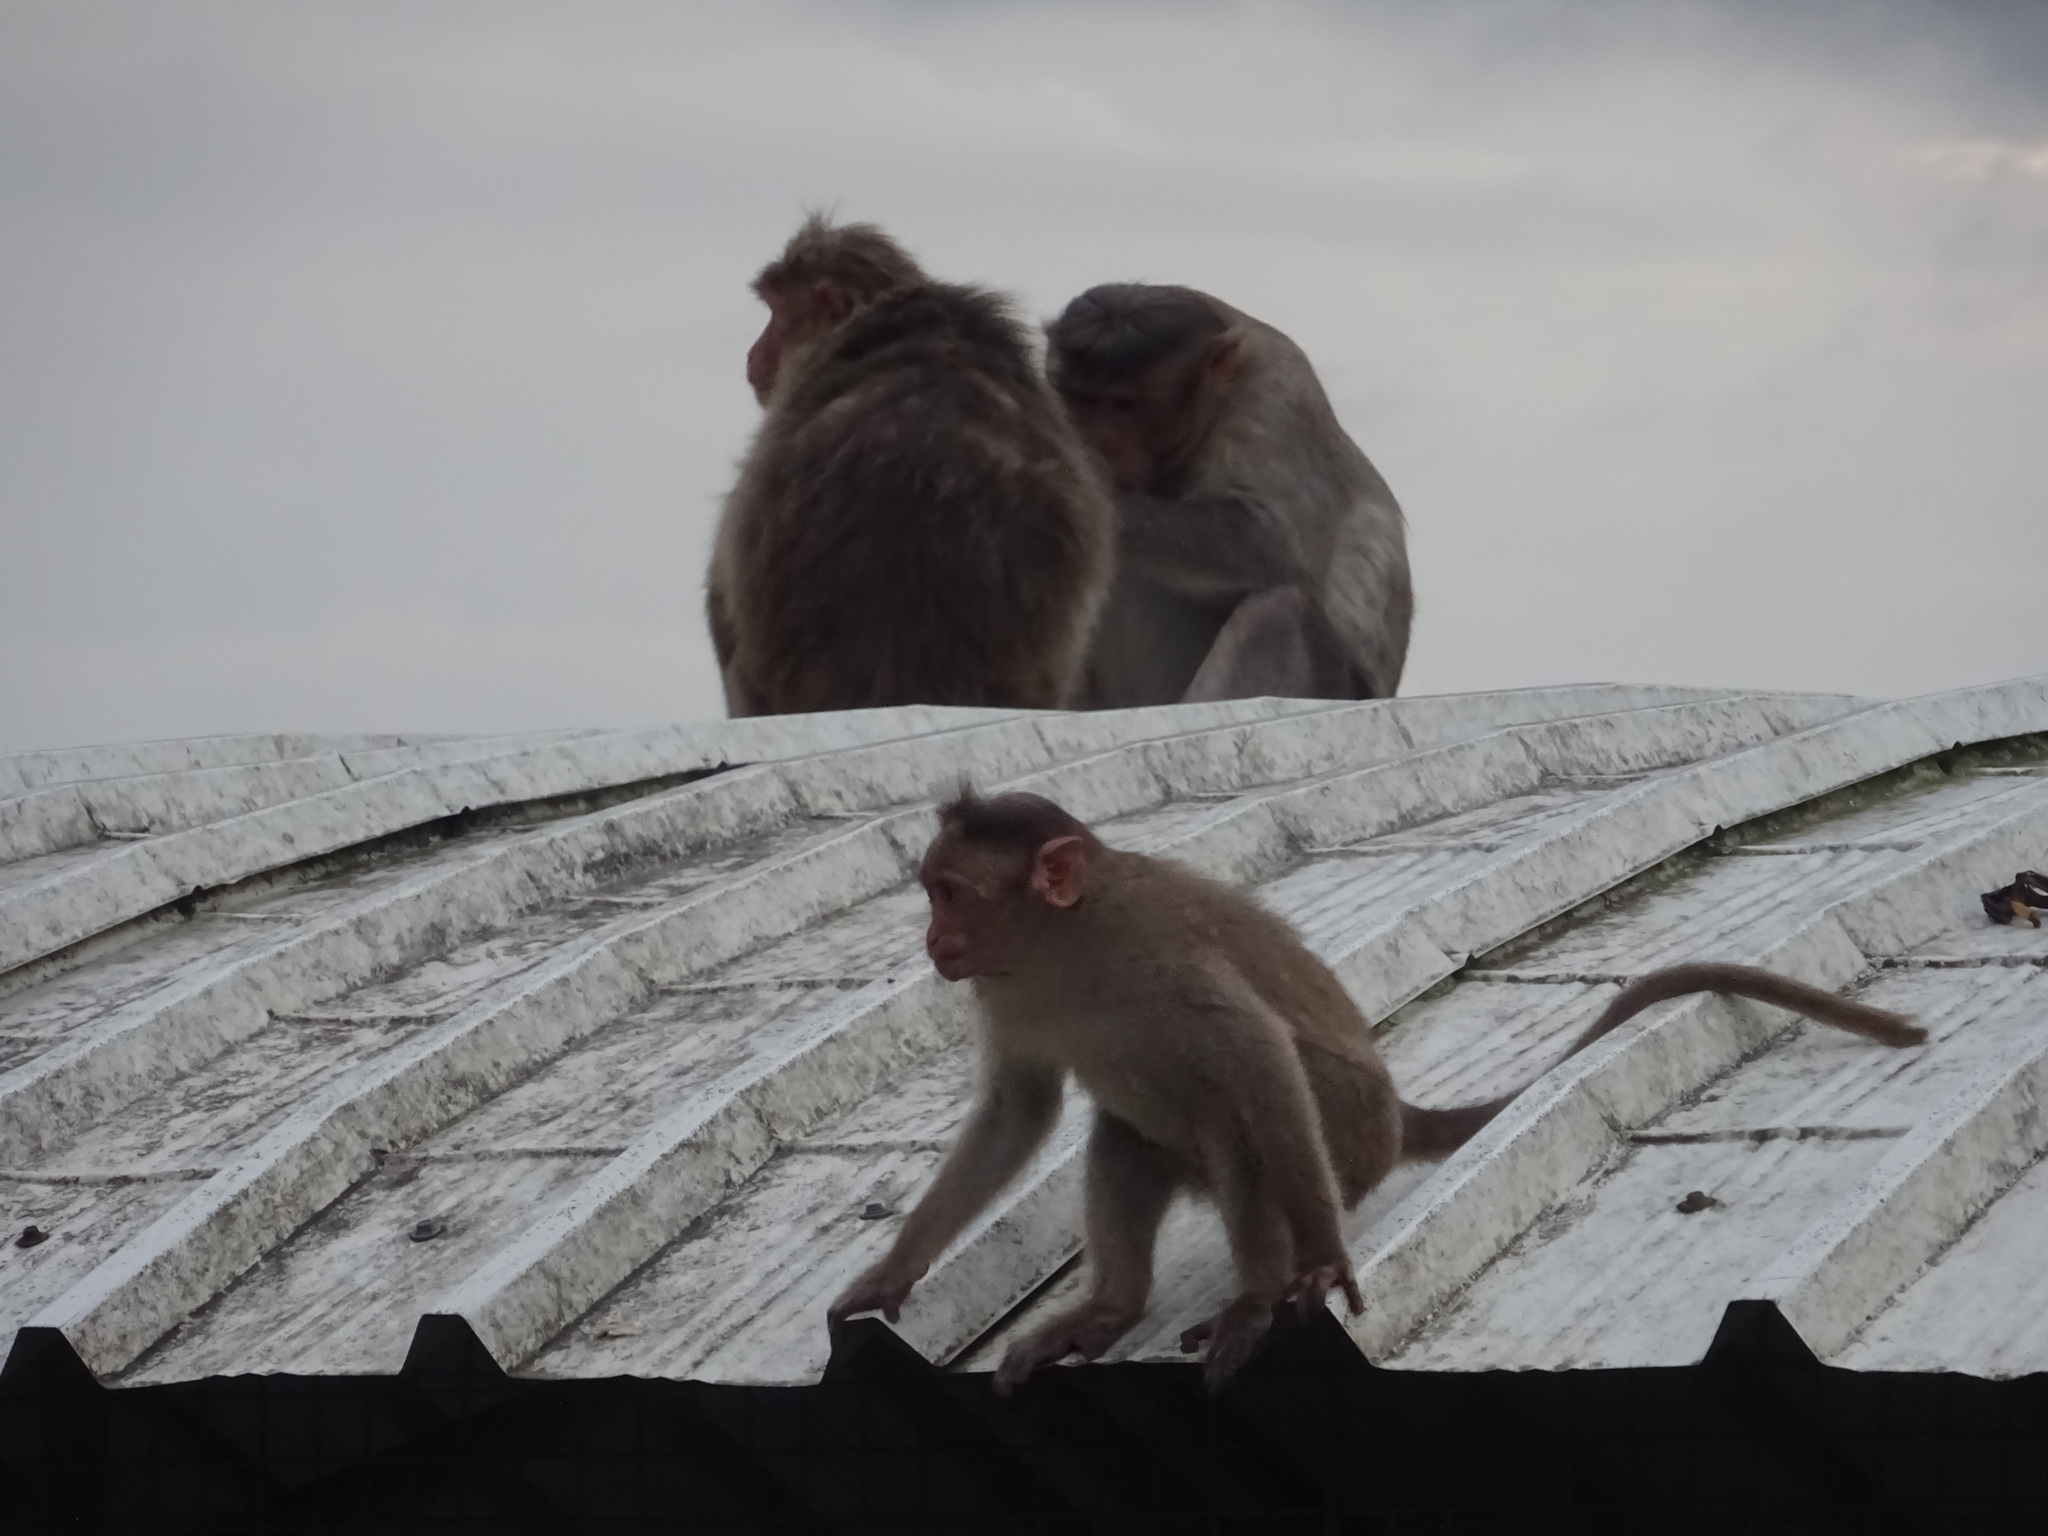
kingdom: Animalia
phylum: Chordata
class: Mammalia
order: Primates
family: Cercopithecidae
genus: Macaca
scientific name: Macaca radiata
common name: Bonnet macaque
